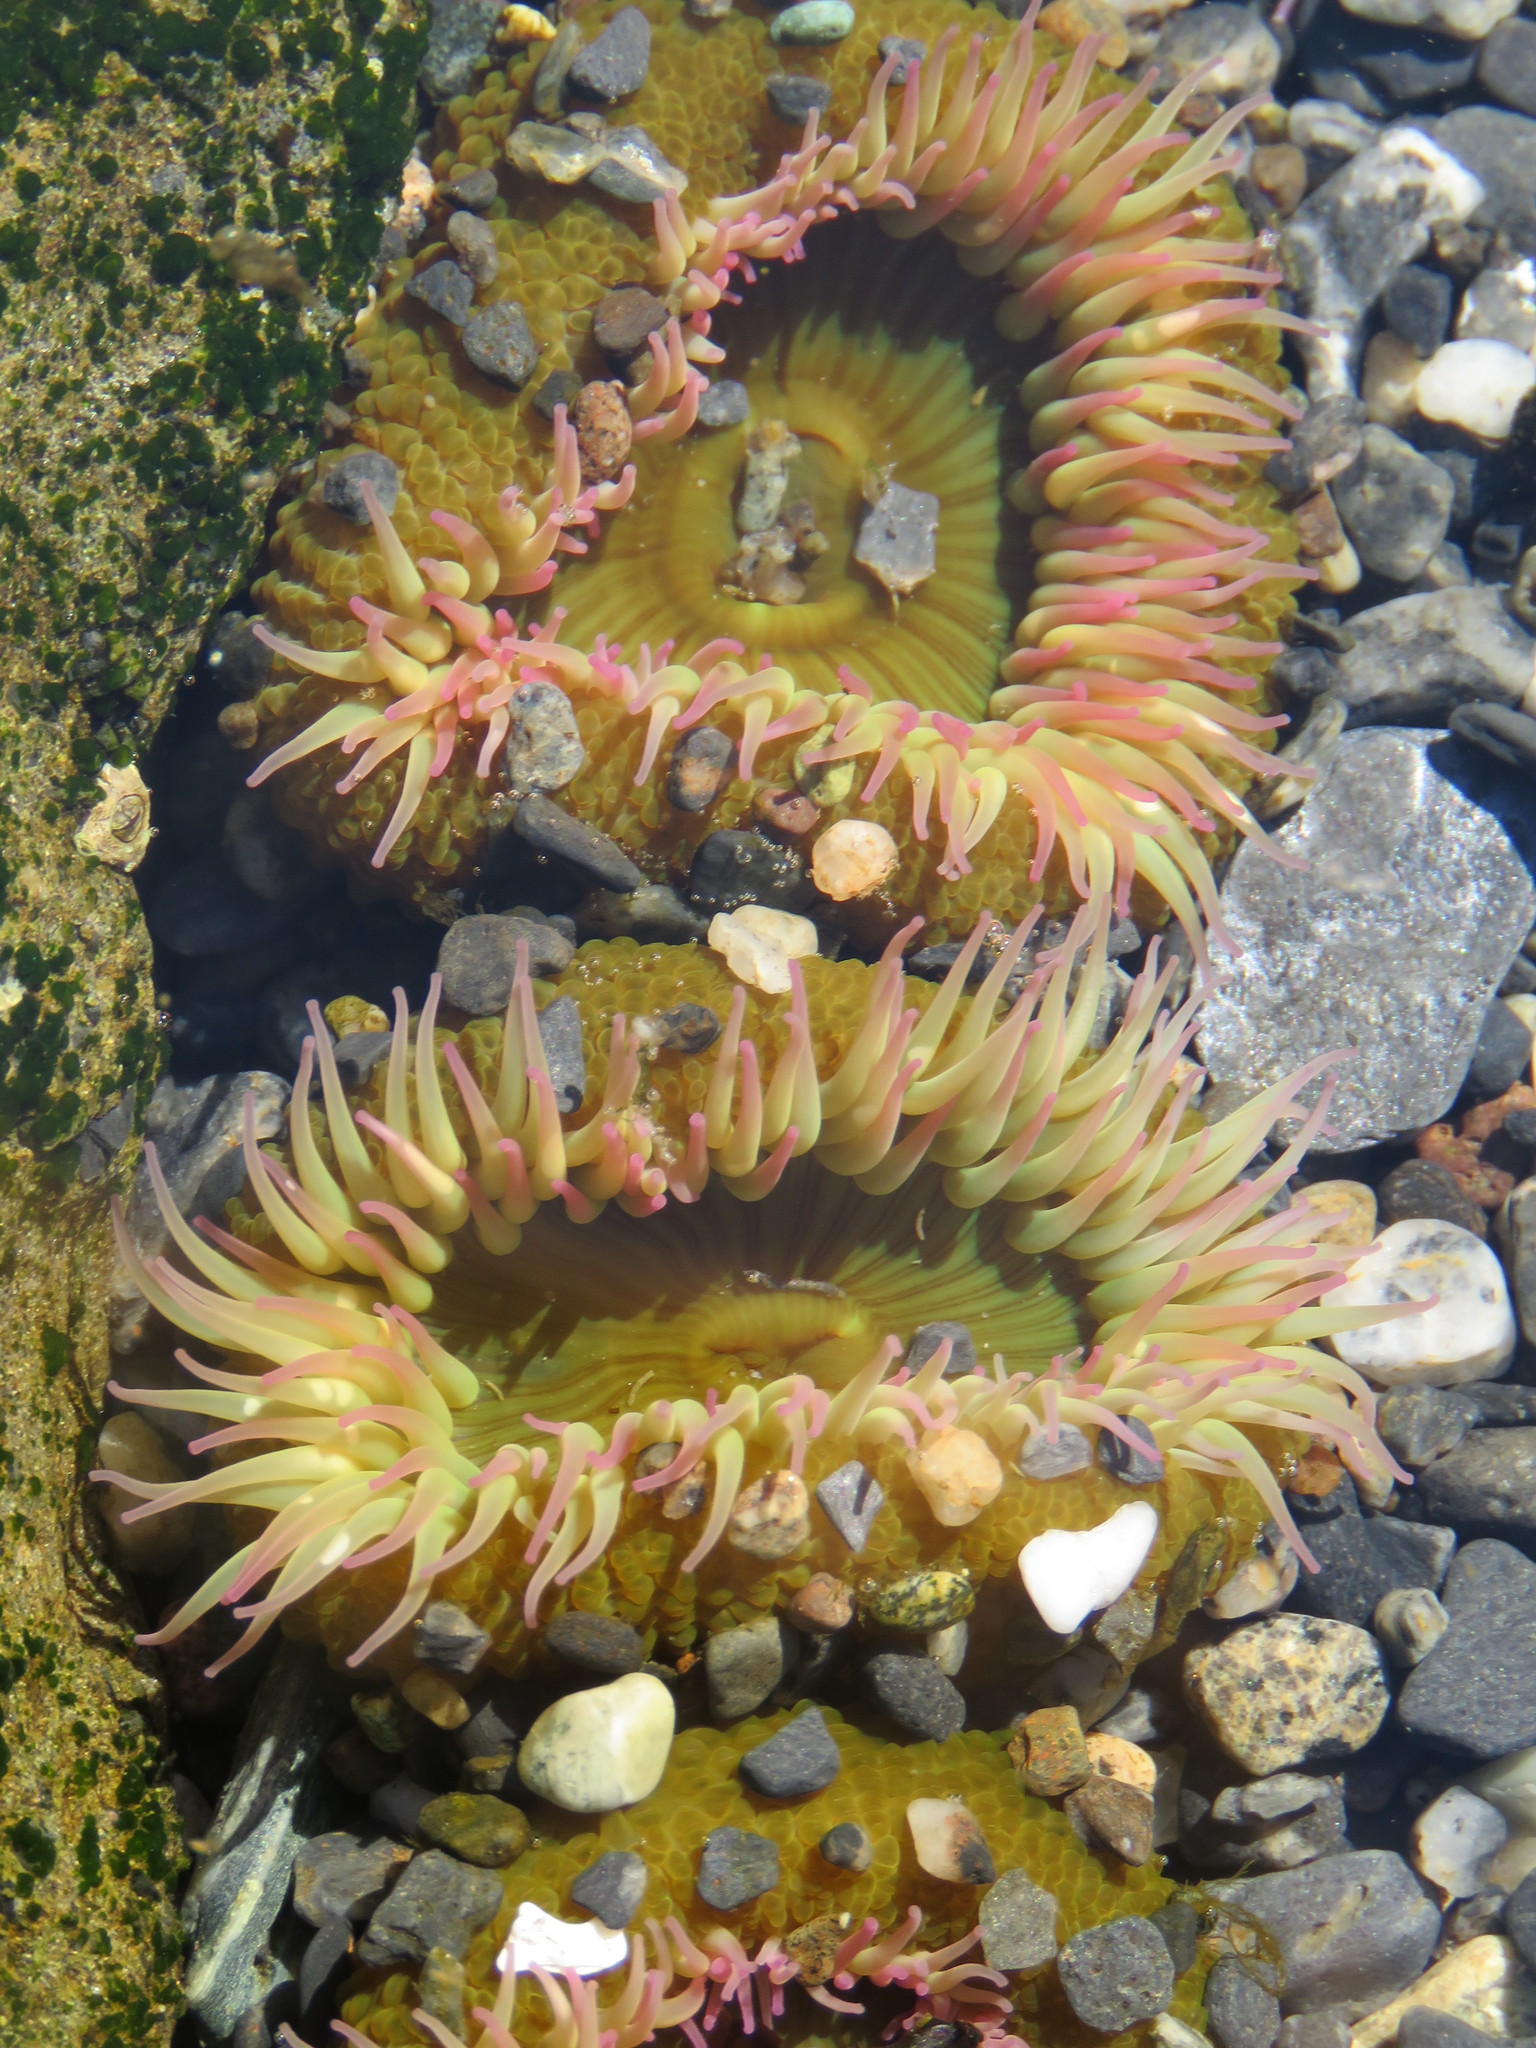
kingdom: Animalia
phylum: Cnidaria
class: Anthozoa
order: Actiniaria
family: Actiniidae
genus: Anthopleura
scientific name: Anthopleura elegantissima
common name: Clonal anemone
